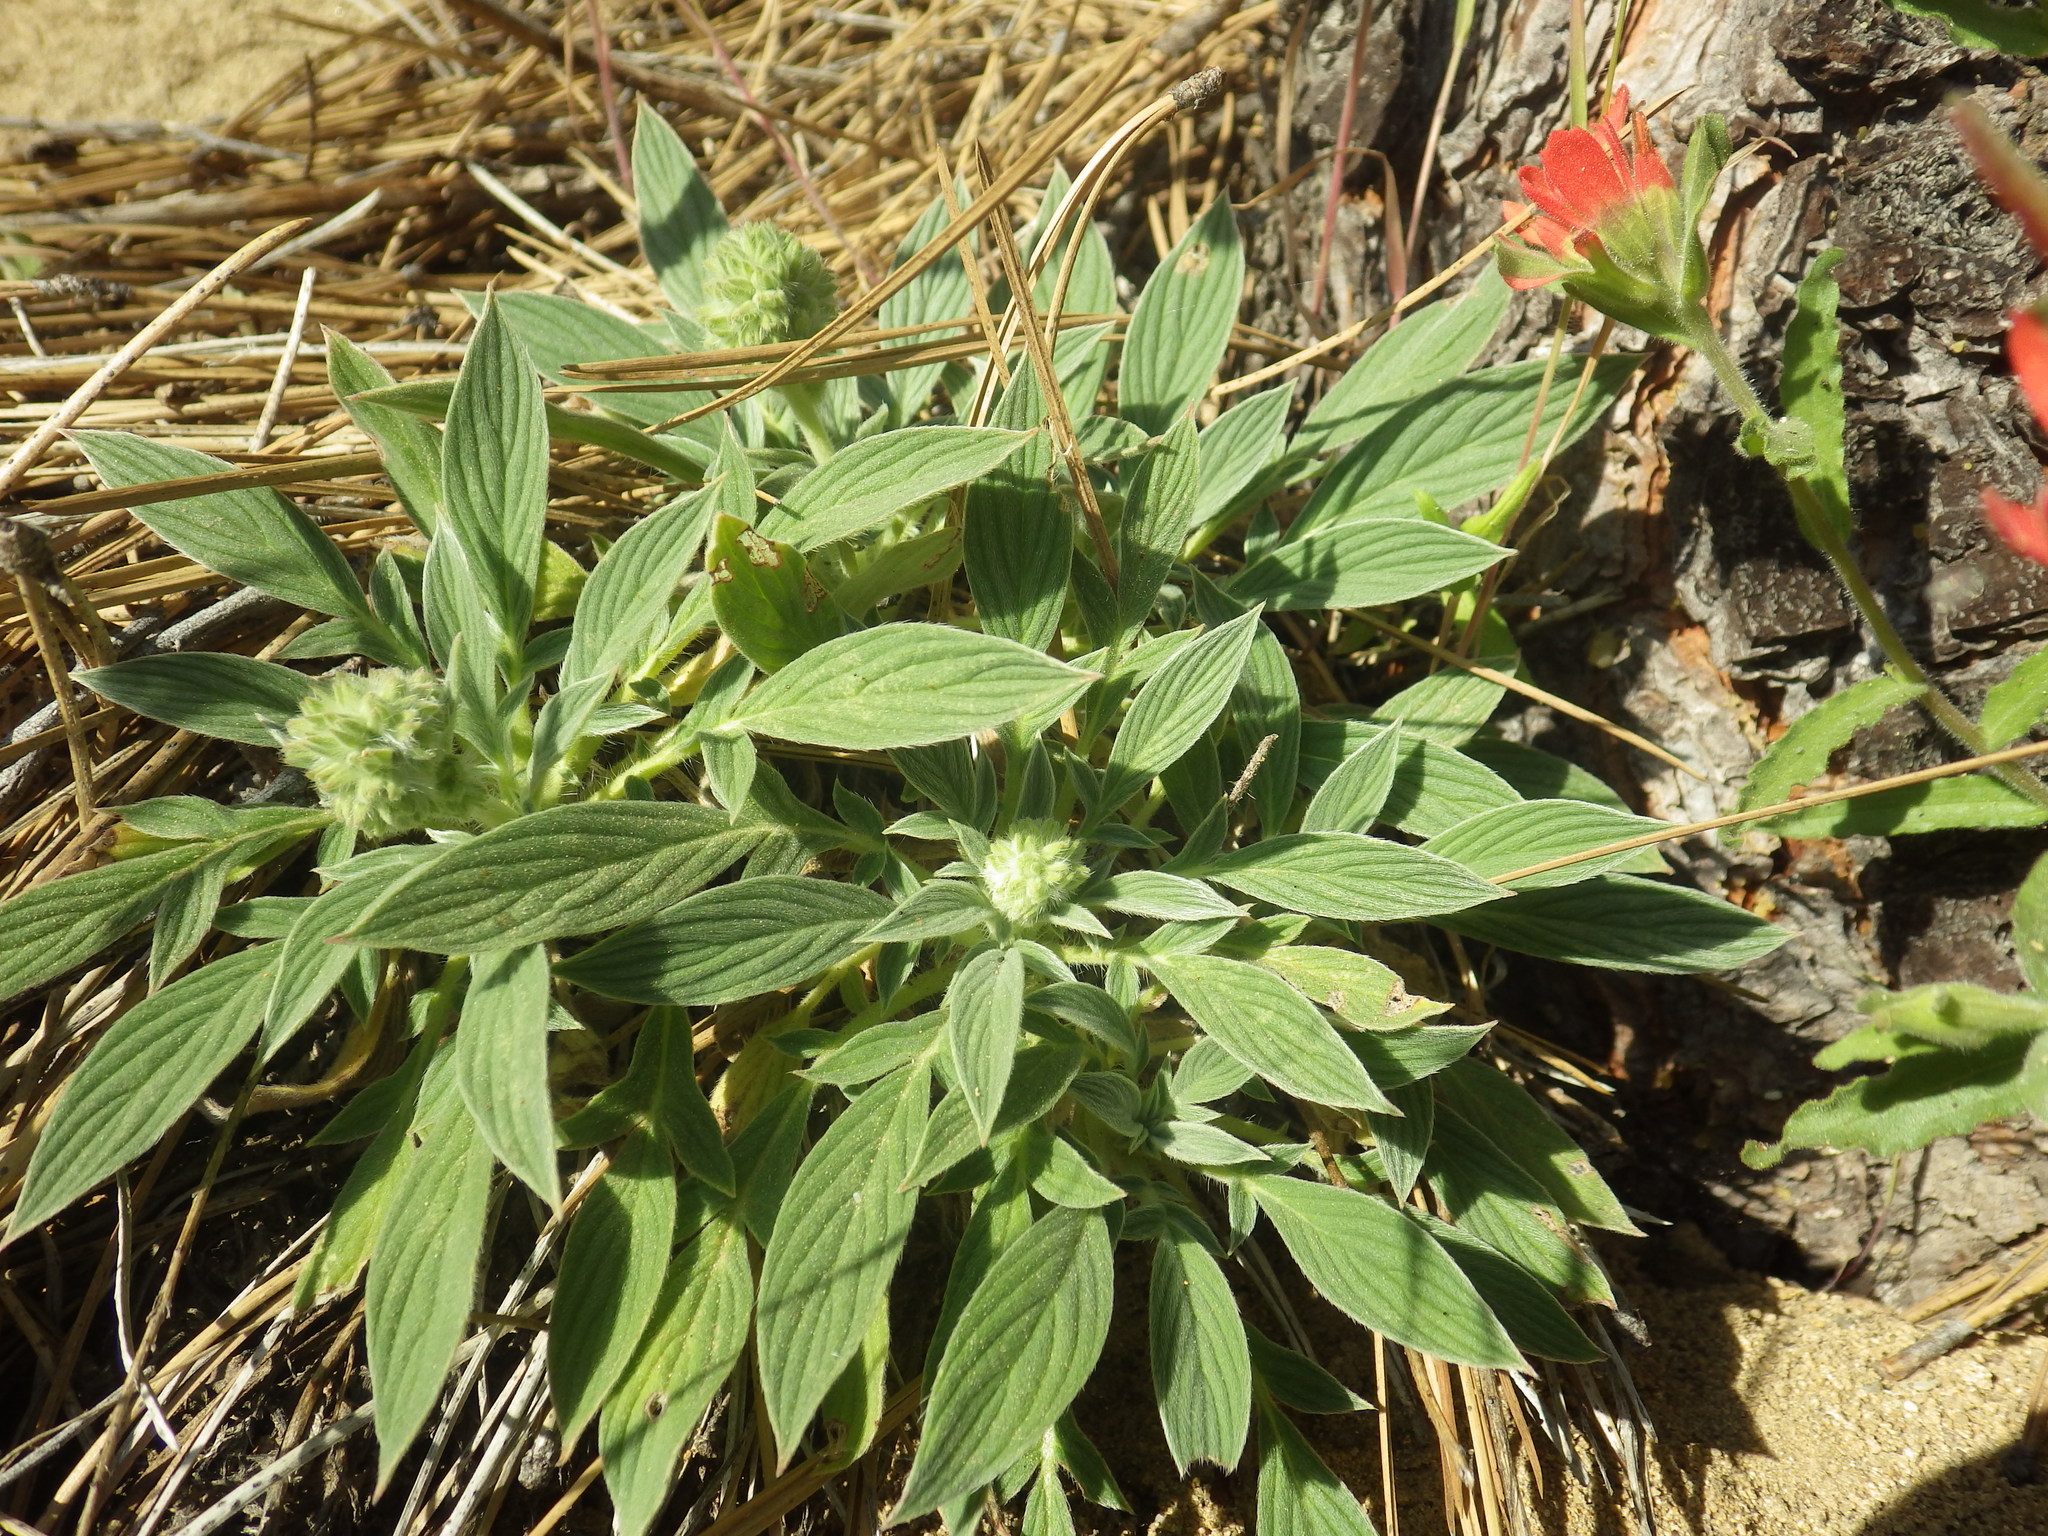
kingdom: Plantae
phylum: Tracheophyta
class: Magnoliopsida
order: Boraginales
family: Hydrophyllaceae
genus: Phacelia
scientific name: Phacelia egena
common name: Rock phacelia
